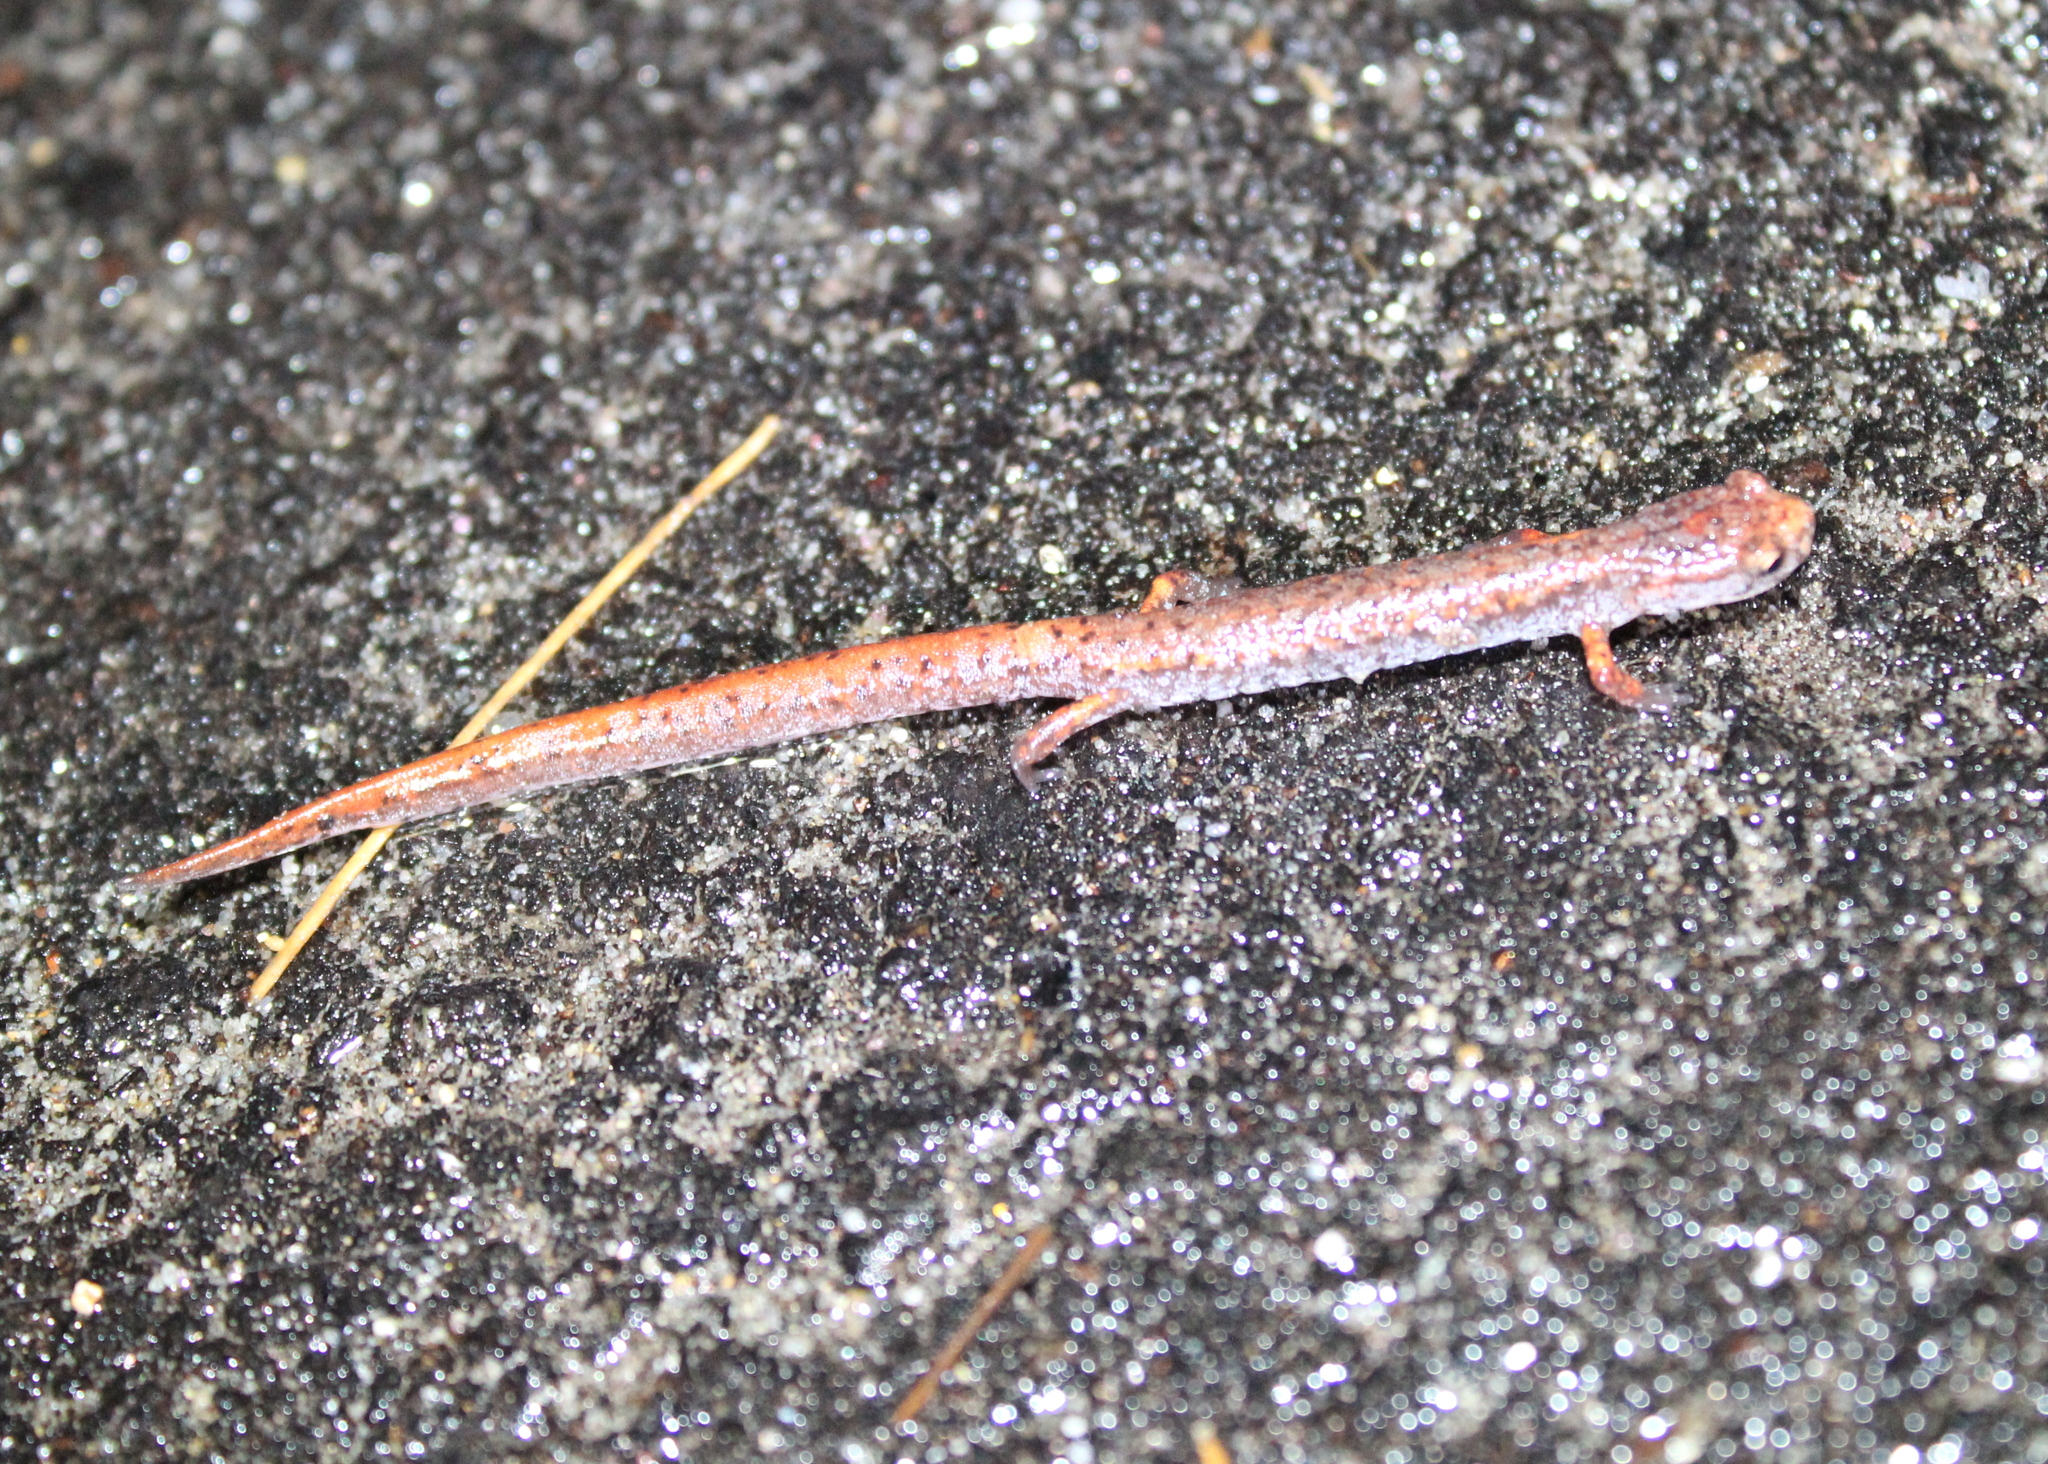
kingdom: Animalia
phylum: Chordata
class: Amphibia
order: Caudata
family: Plethodontidae
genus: Hemidactylium
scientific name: Hemidactylium scutatum
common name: Four-toed salamander
